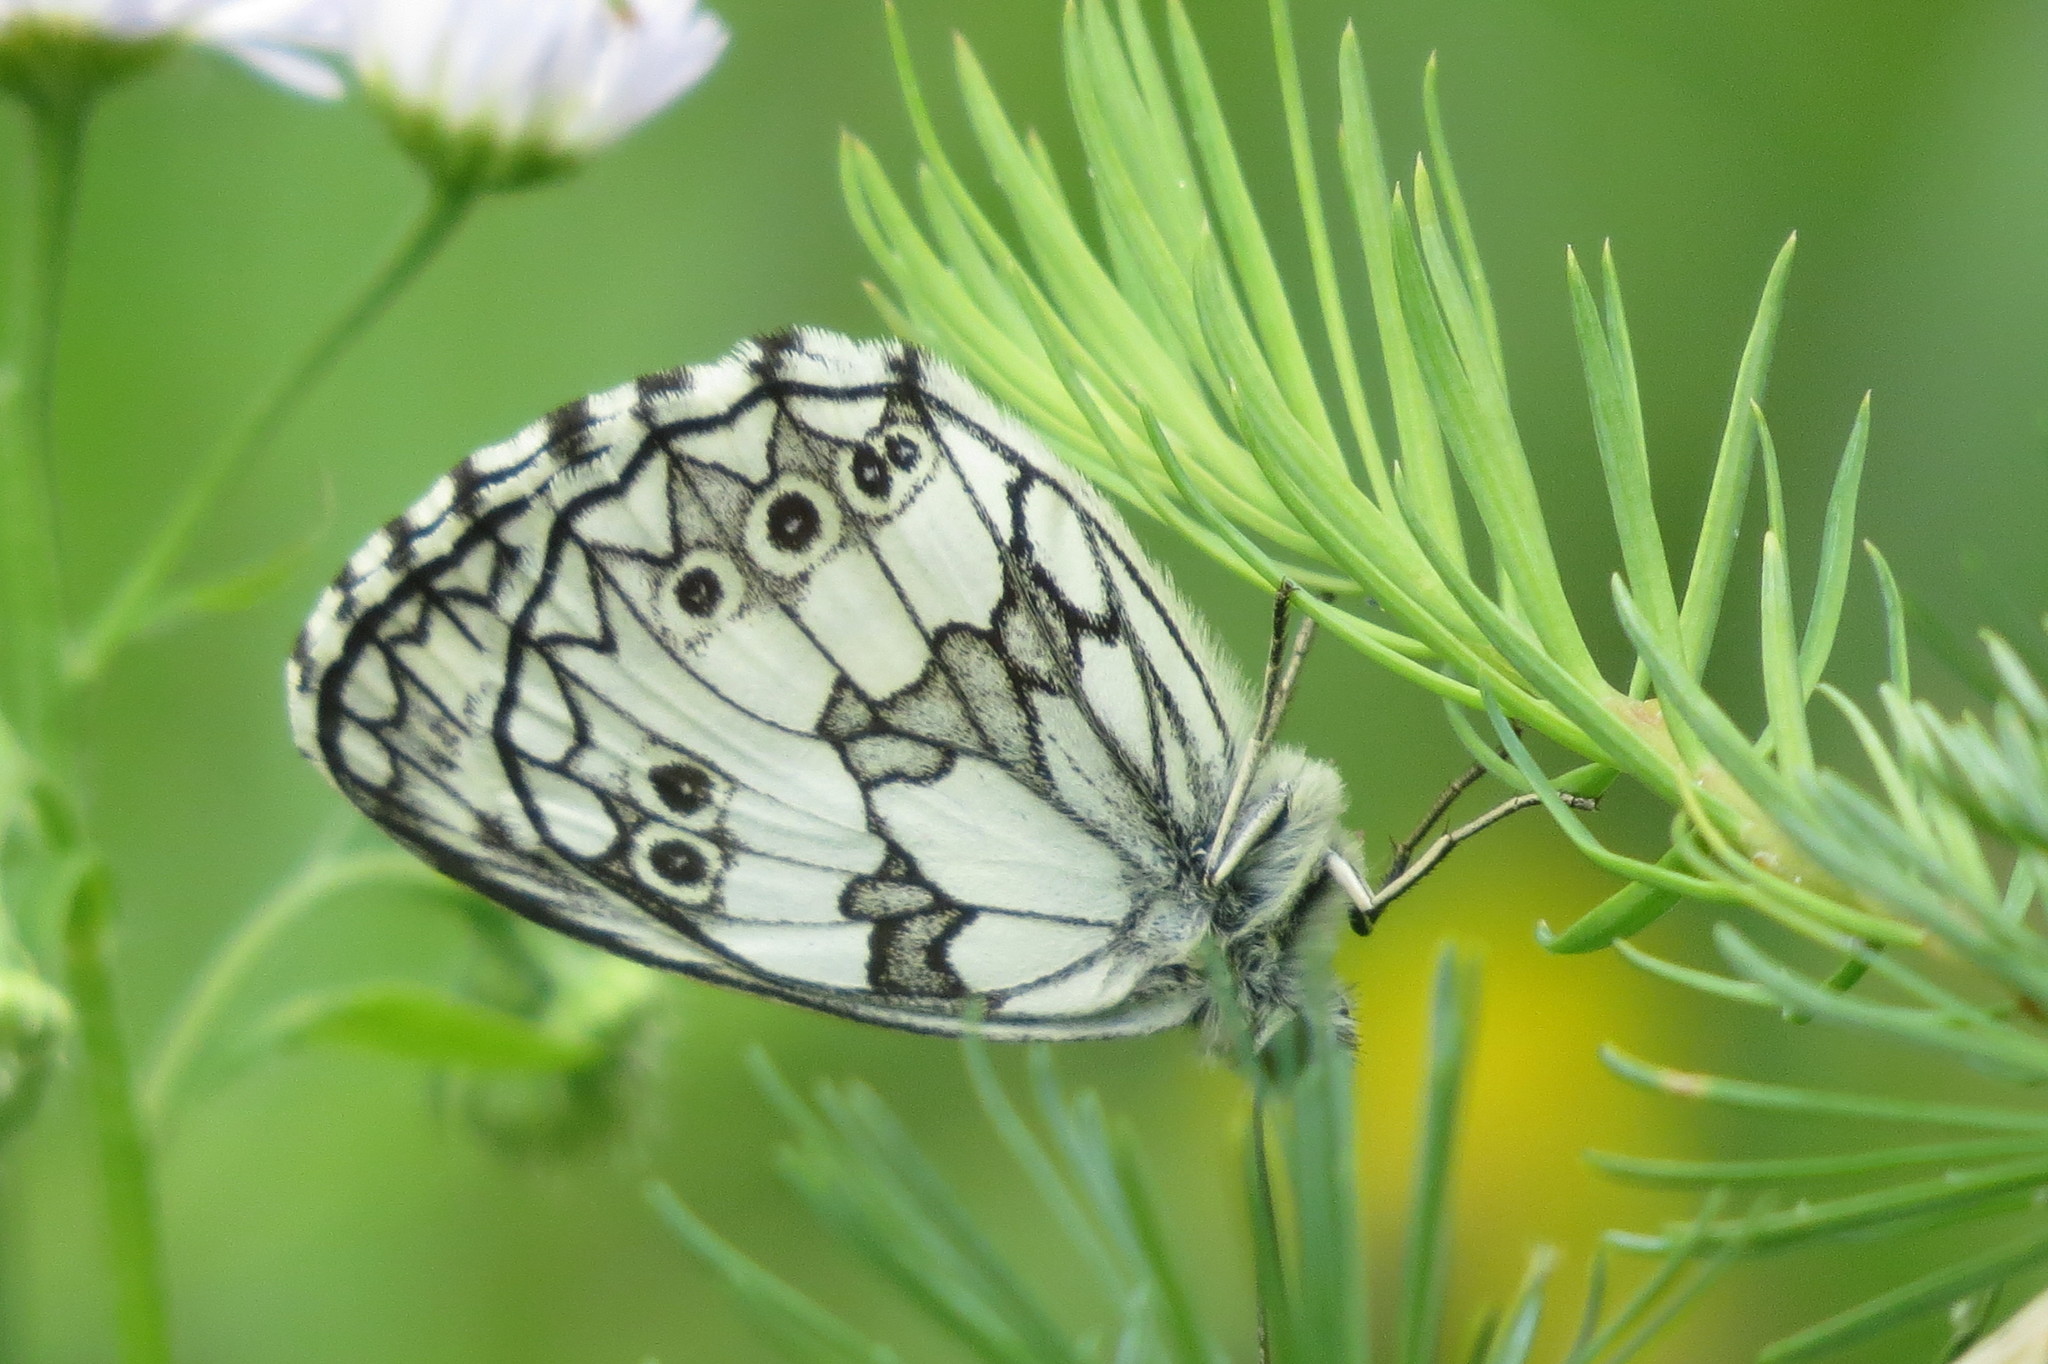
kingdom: Animalia
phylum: Arthropoda
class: Insecta
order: Lepidoptera
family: Nymphalidae
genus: Melanargia
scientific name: Melanargia galathea
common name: Marbled white
